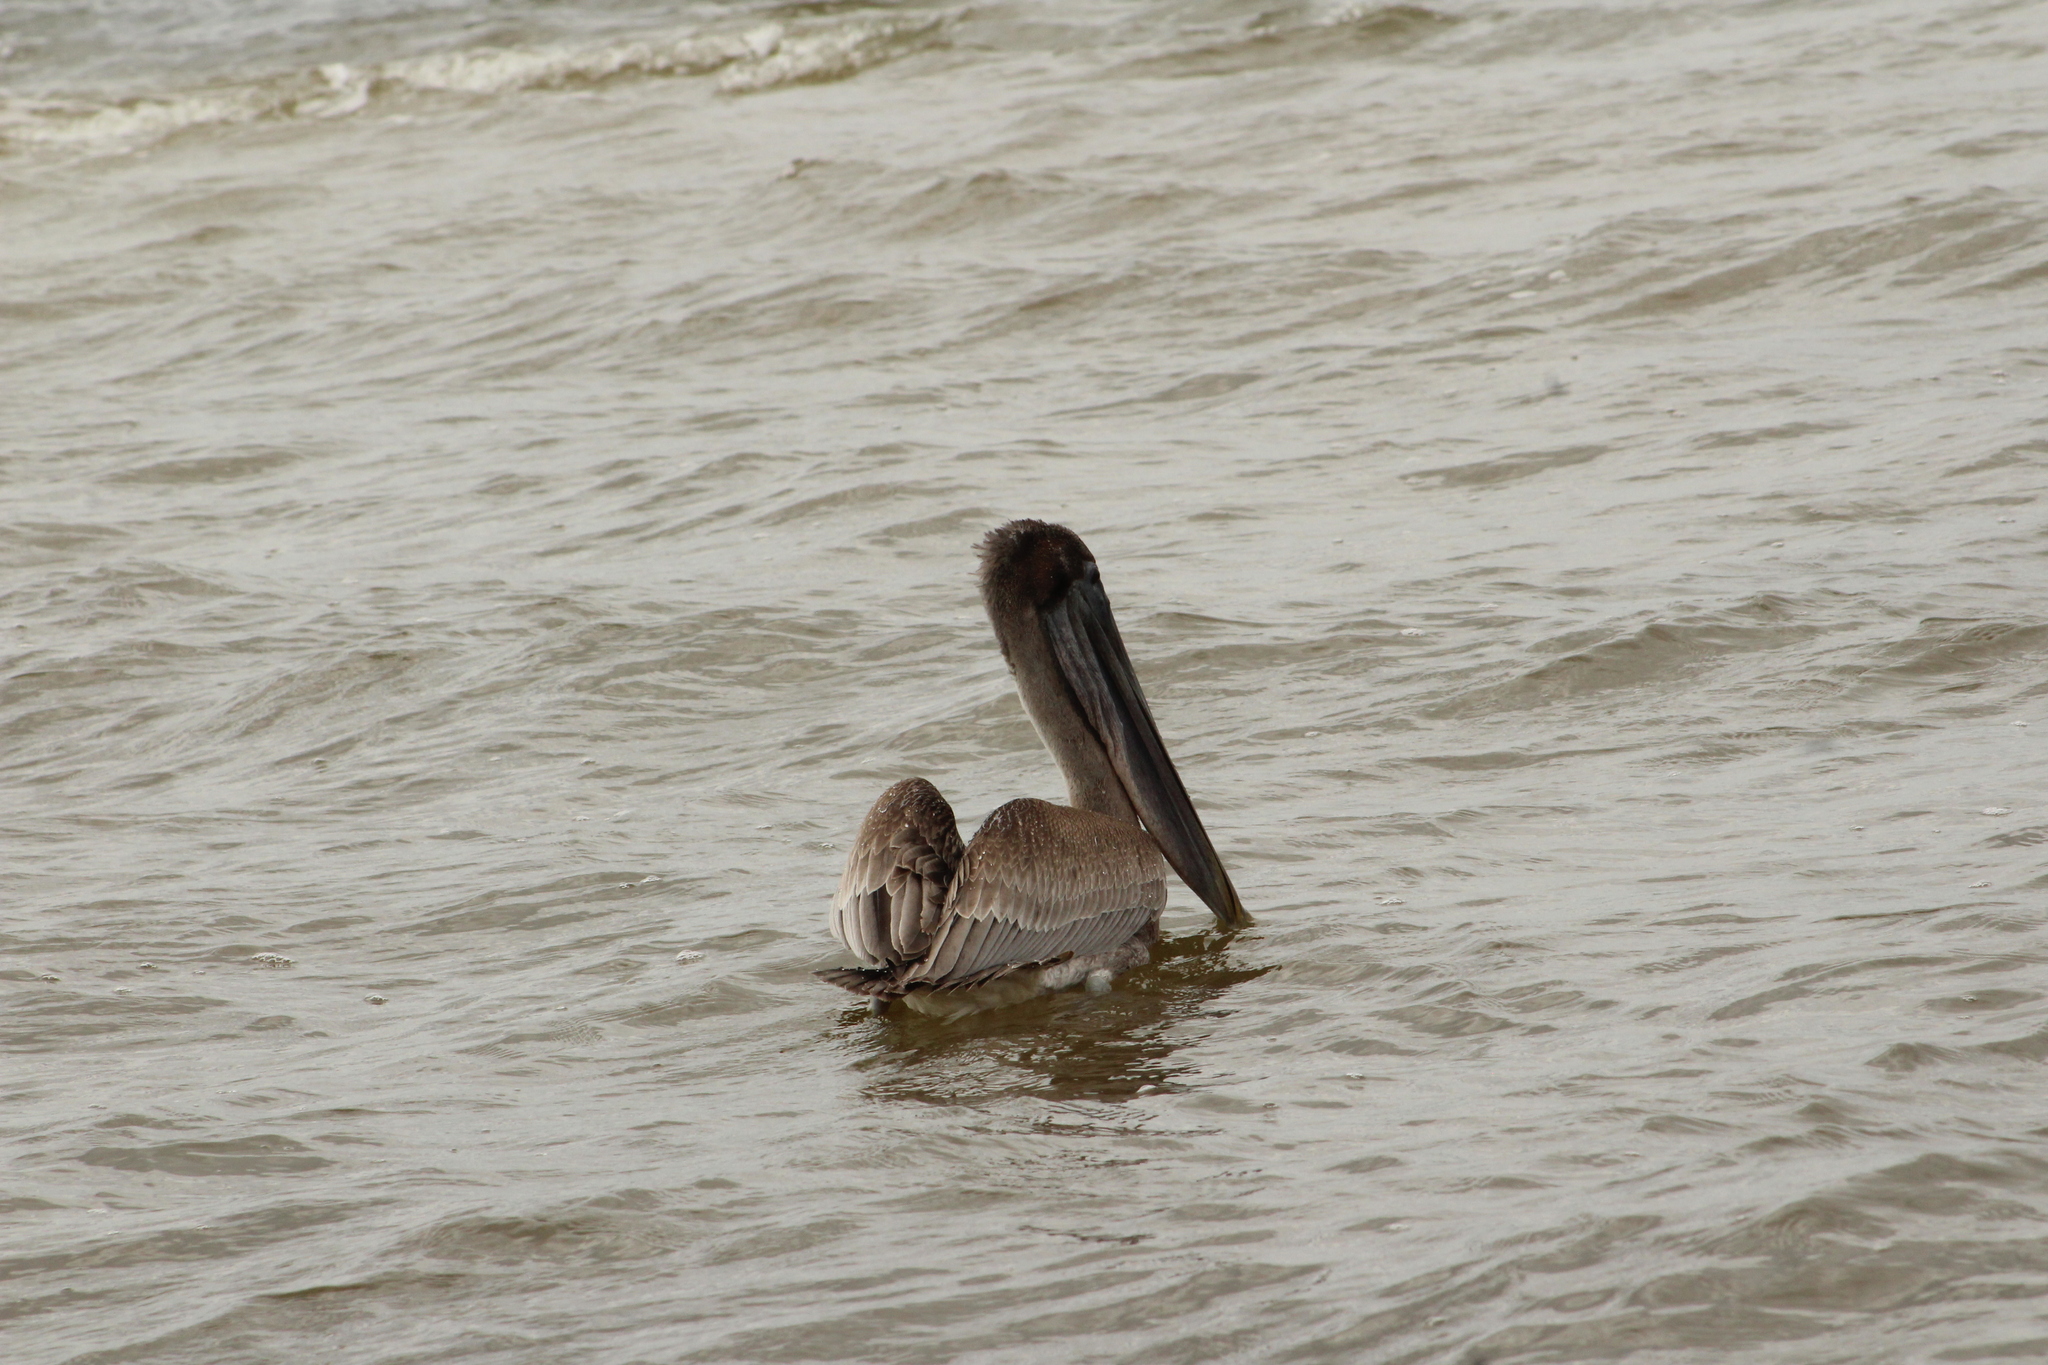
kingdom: Animalia
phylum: Chordata
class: Aves
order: Pelecaniformes
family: Pelecanidae
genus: Pelecanus
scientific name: Pelecanus occidentalis
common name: Brown pelican
